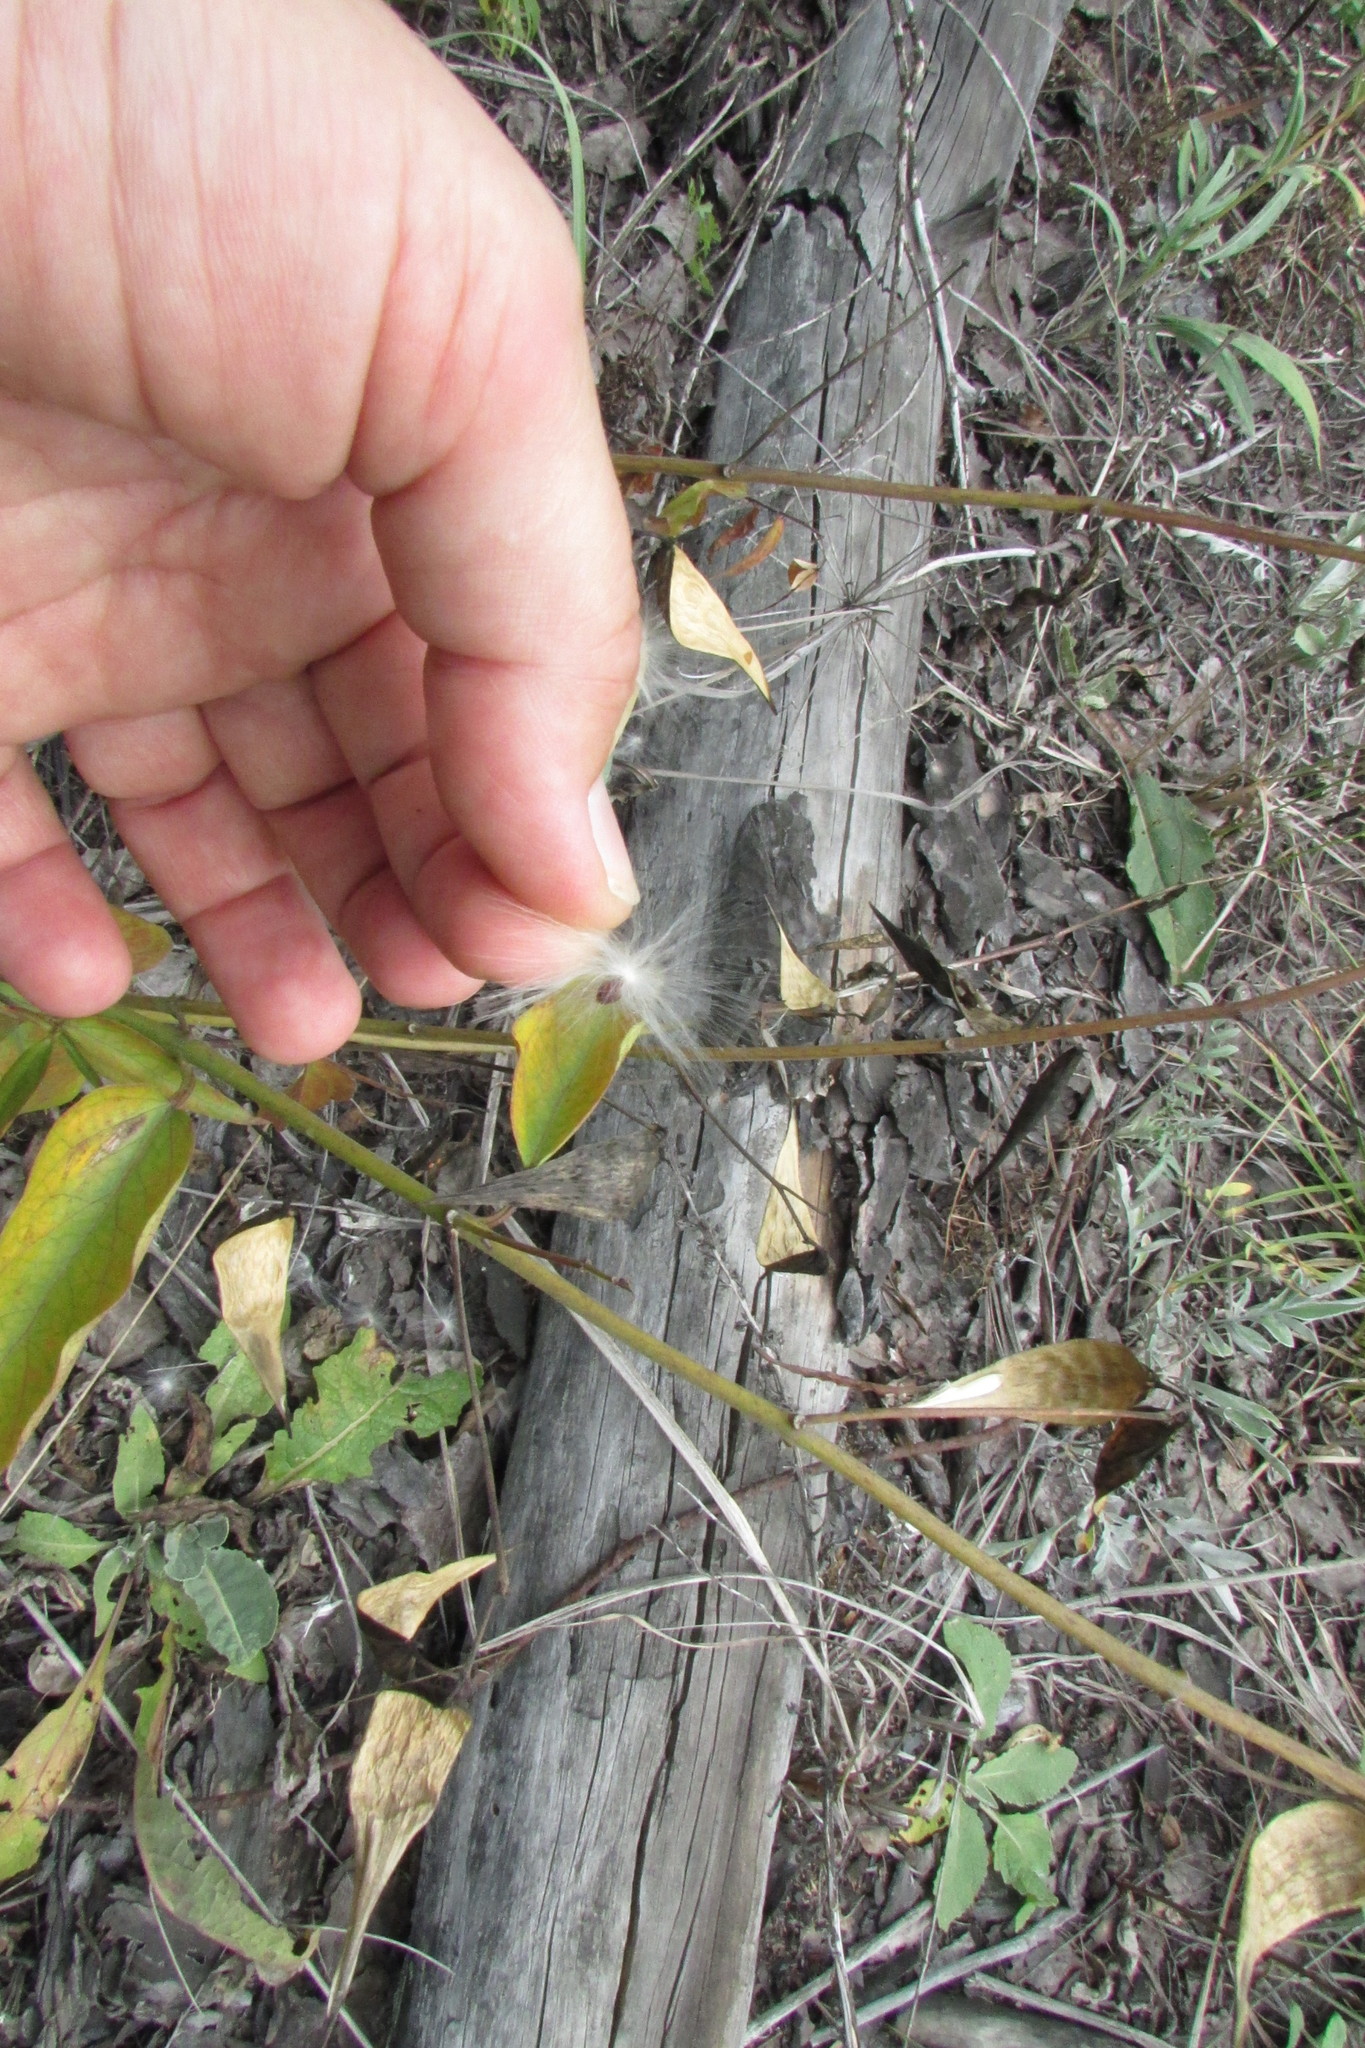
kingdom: Plantae
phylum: Tracheophyta
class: Magnoliopsida
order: Gentianales
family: Apocynaceae
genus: Vincetoxicum
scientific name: Vincetoxicum hirundinaria
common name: White swallowwort
